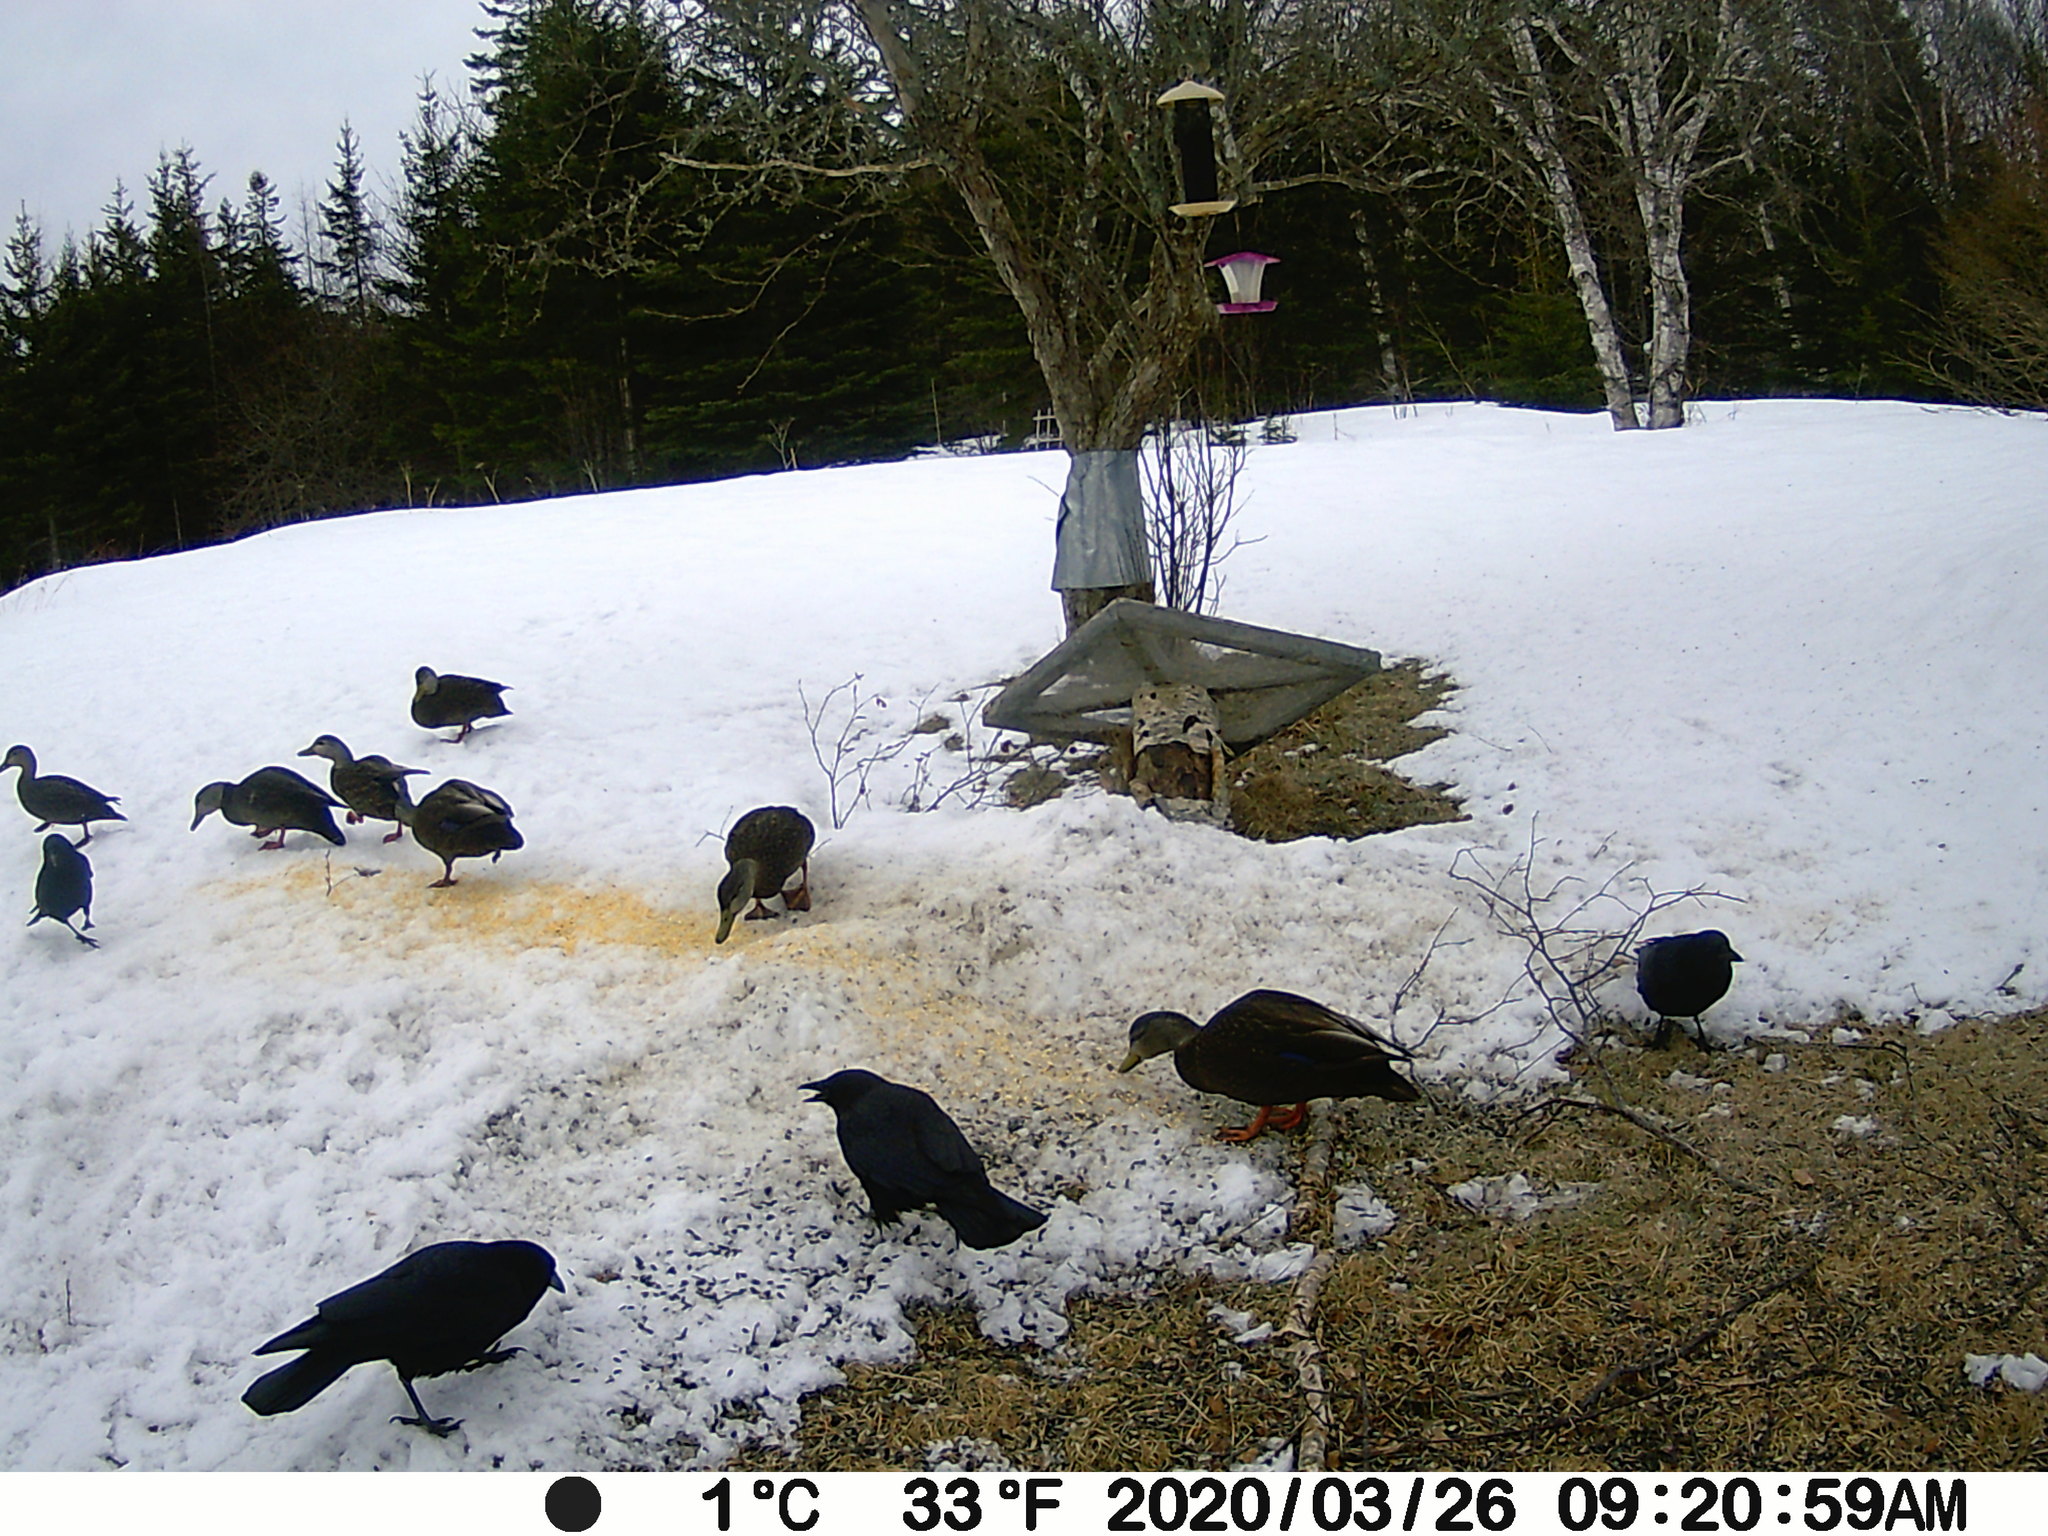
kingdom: Animalia
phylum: Chordata
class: Aves
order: Anseriformes
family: Anatidae
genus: Anas
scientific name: Anas rubripes
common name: American black duck
